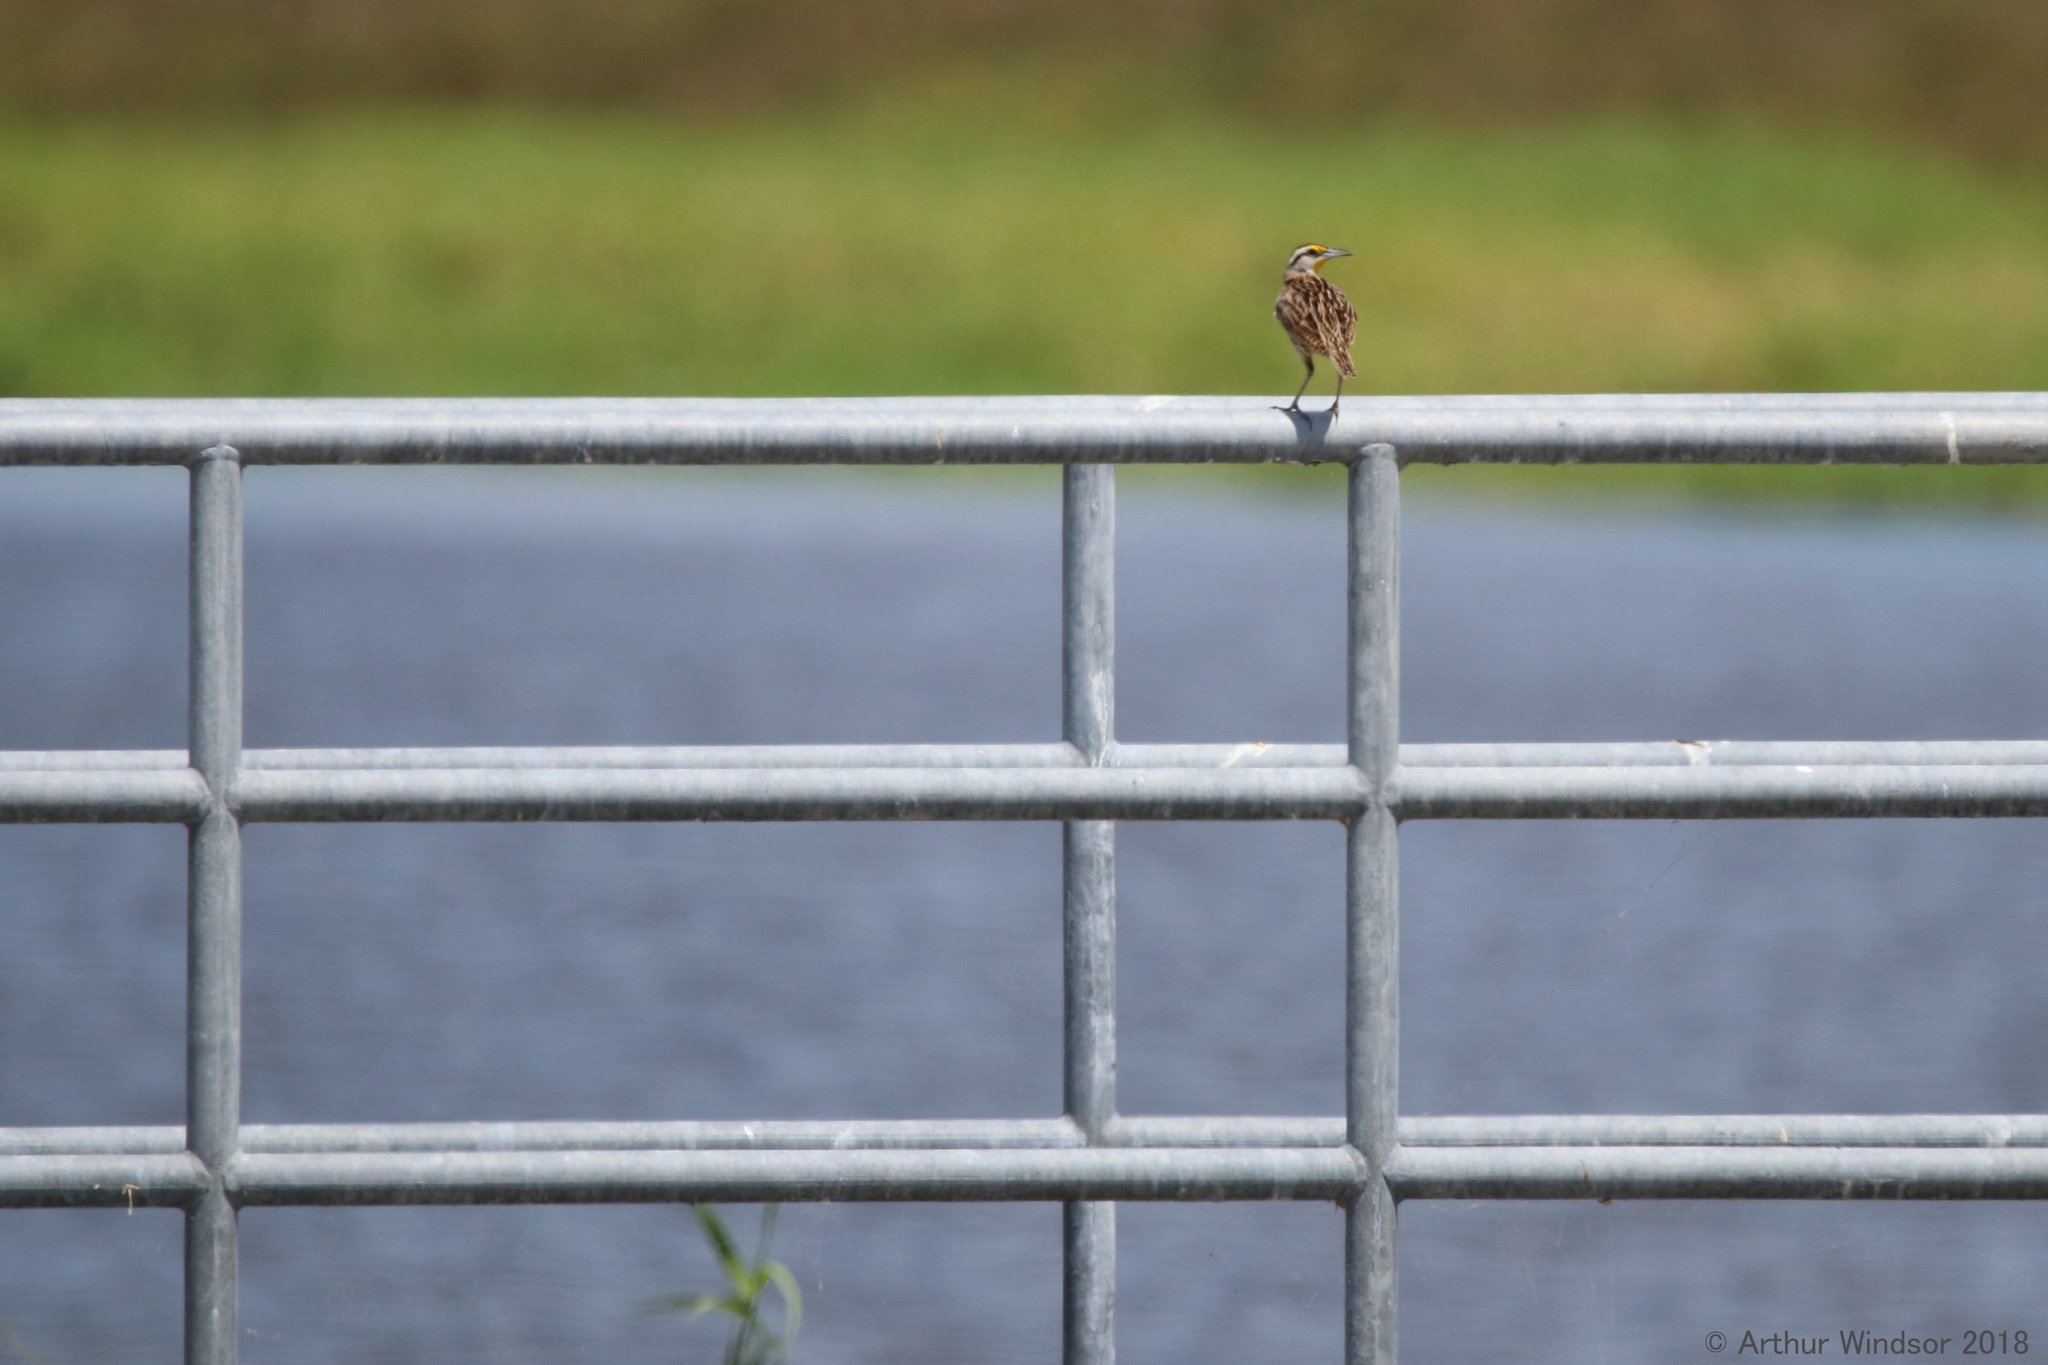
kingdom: Animalia
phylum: Chordata
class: Aves
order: Passeriformes
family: Icteridae
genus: Sturnella
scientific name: Sturnella magna
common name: Eastern meadowlark
